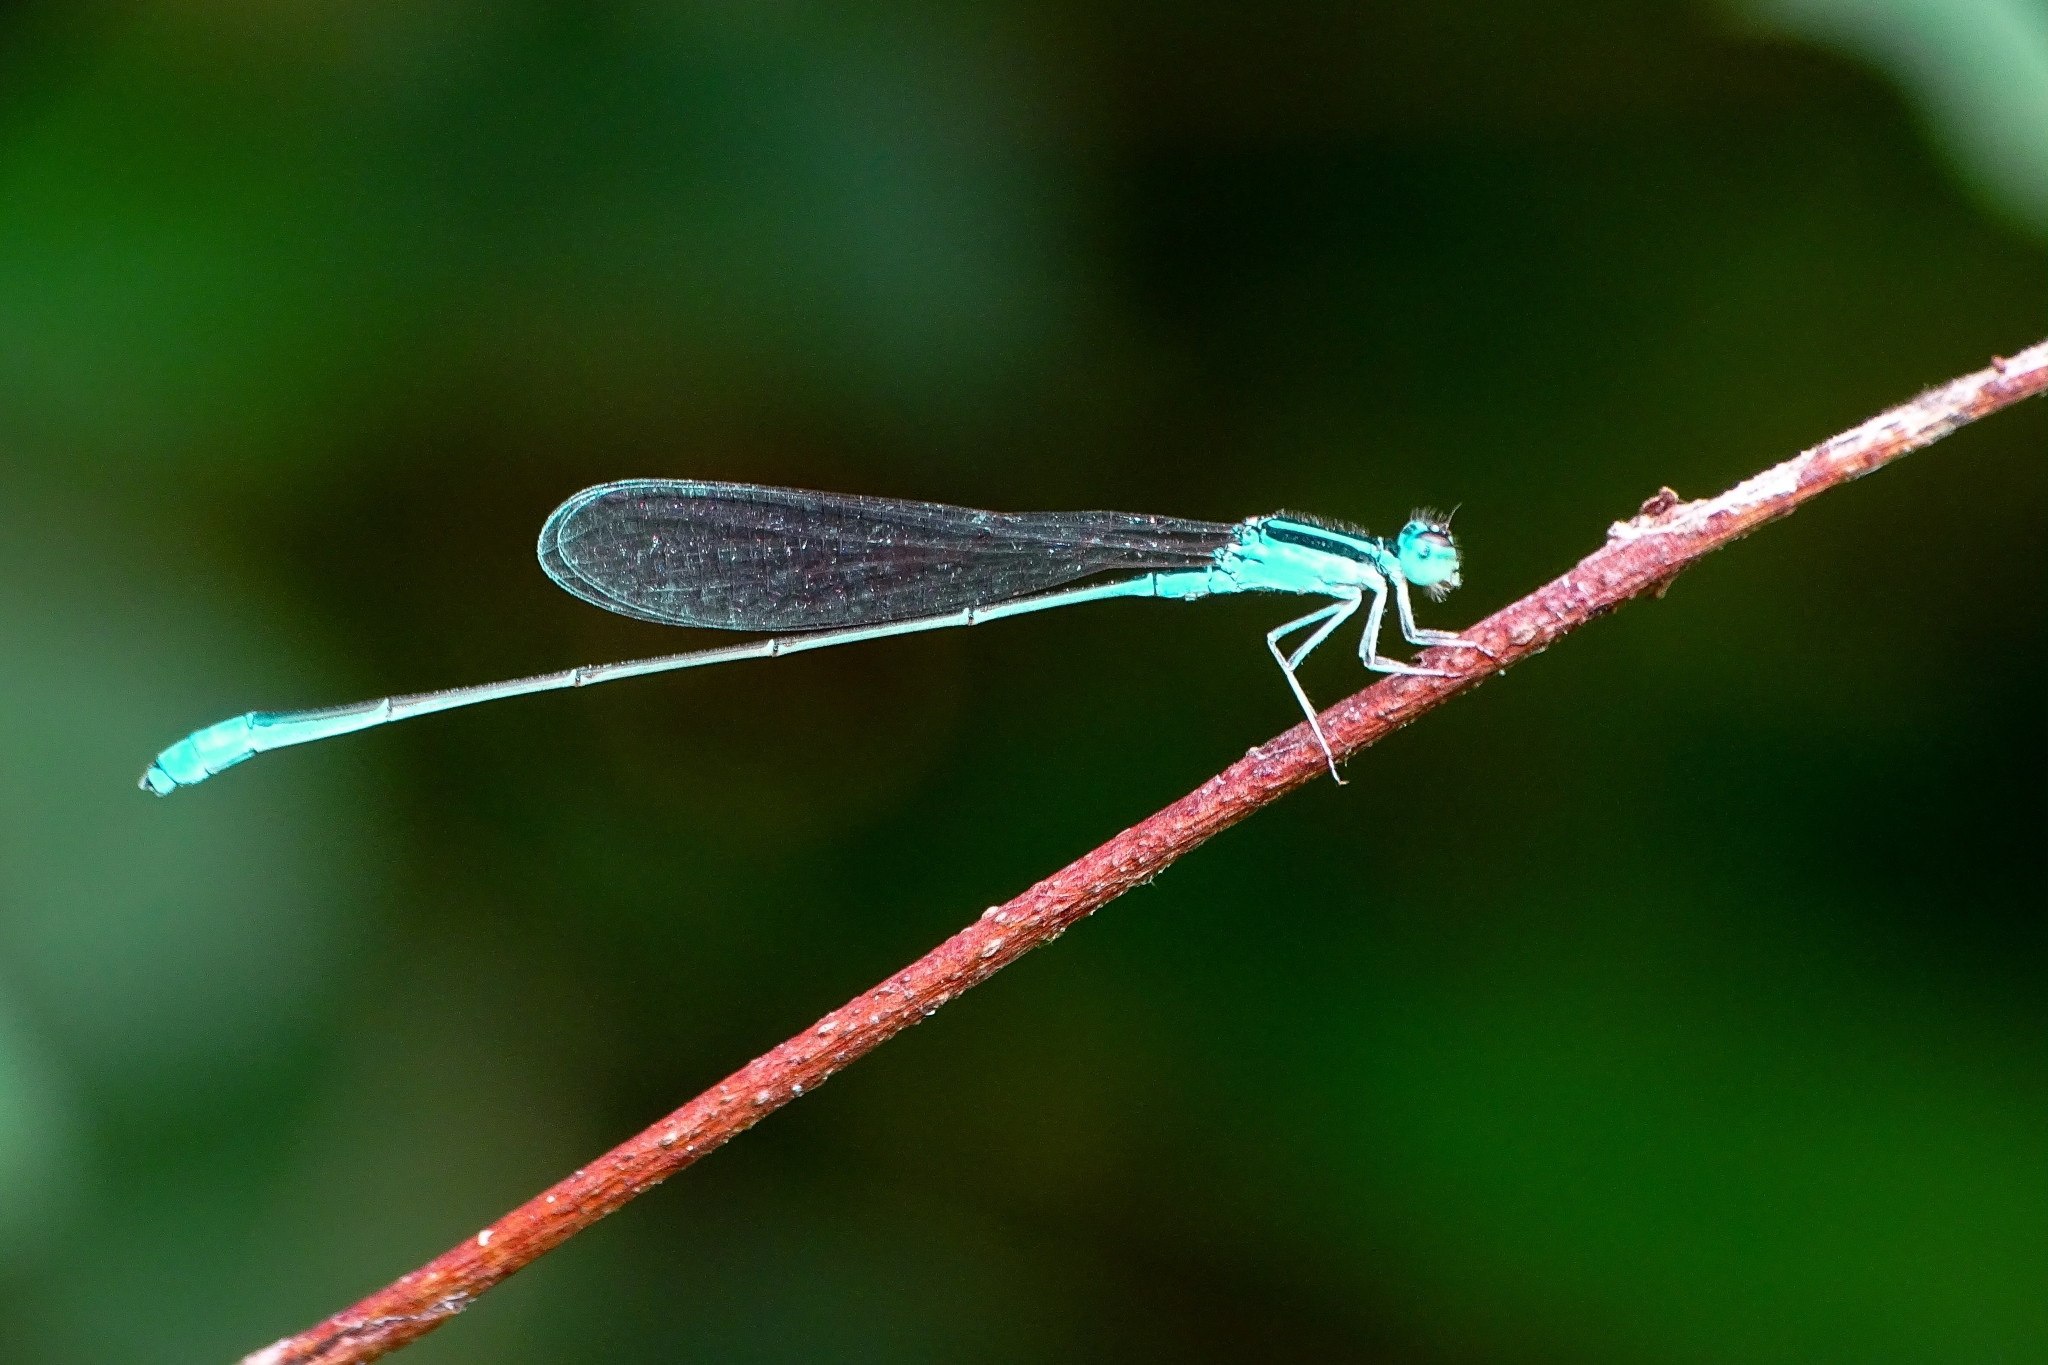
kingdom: Animalia
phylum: Arthropoda
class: Insecta
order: Odonata
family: Coenagrionidae
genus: Aciagrion
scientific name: Aciagrion occidentale
